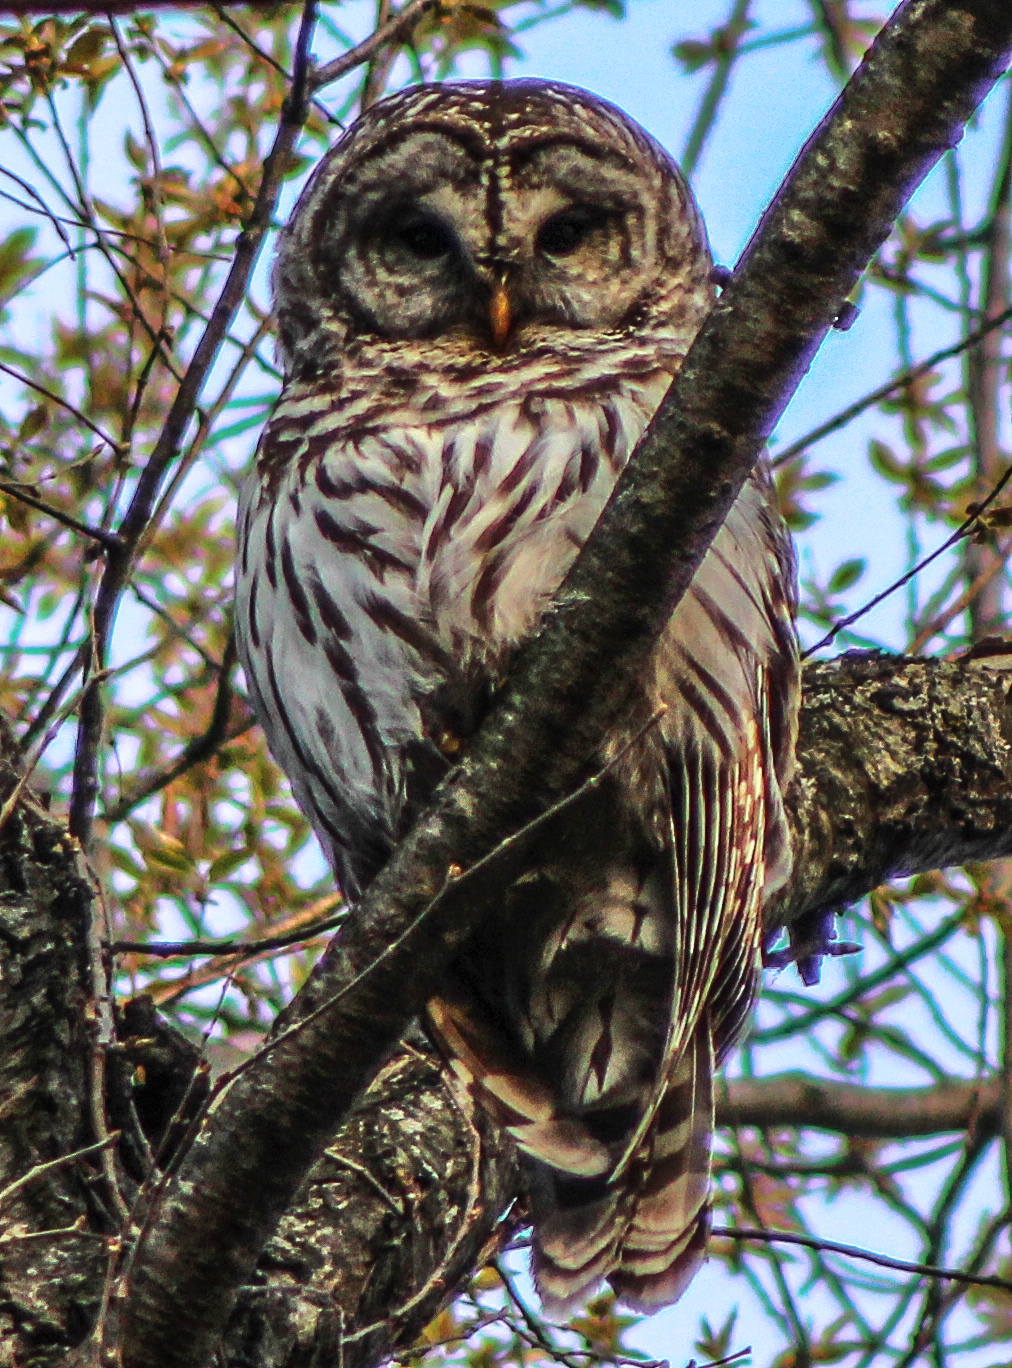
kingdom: Animalia
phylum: Chordata
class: Aves
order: Strigiformes
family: Strigidae
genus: Strix
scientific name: Strix varia
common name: Barred owl
